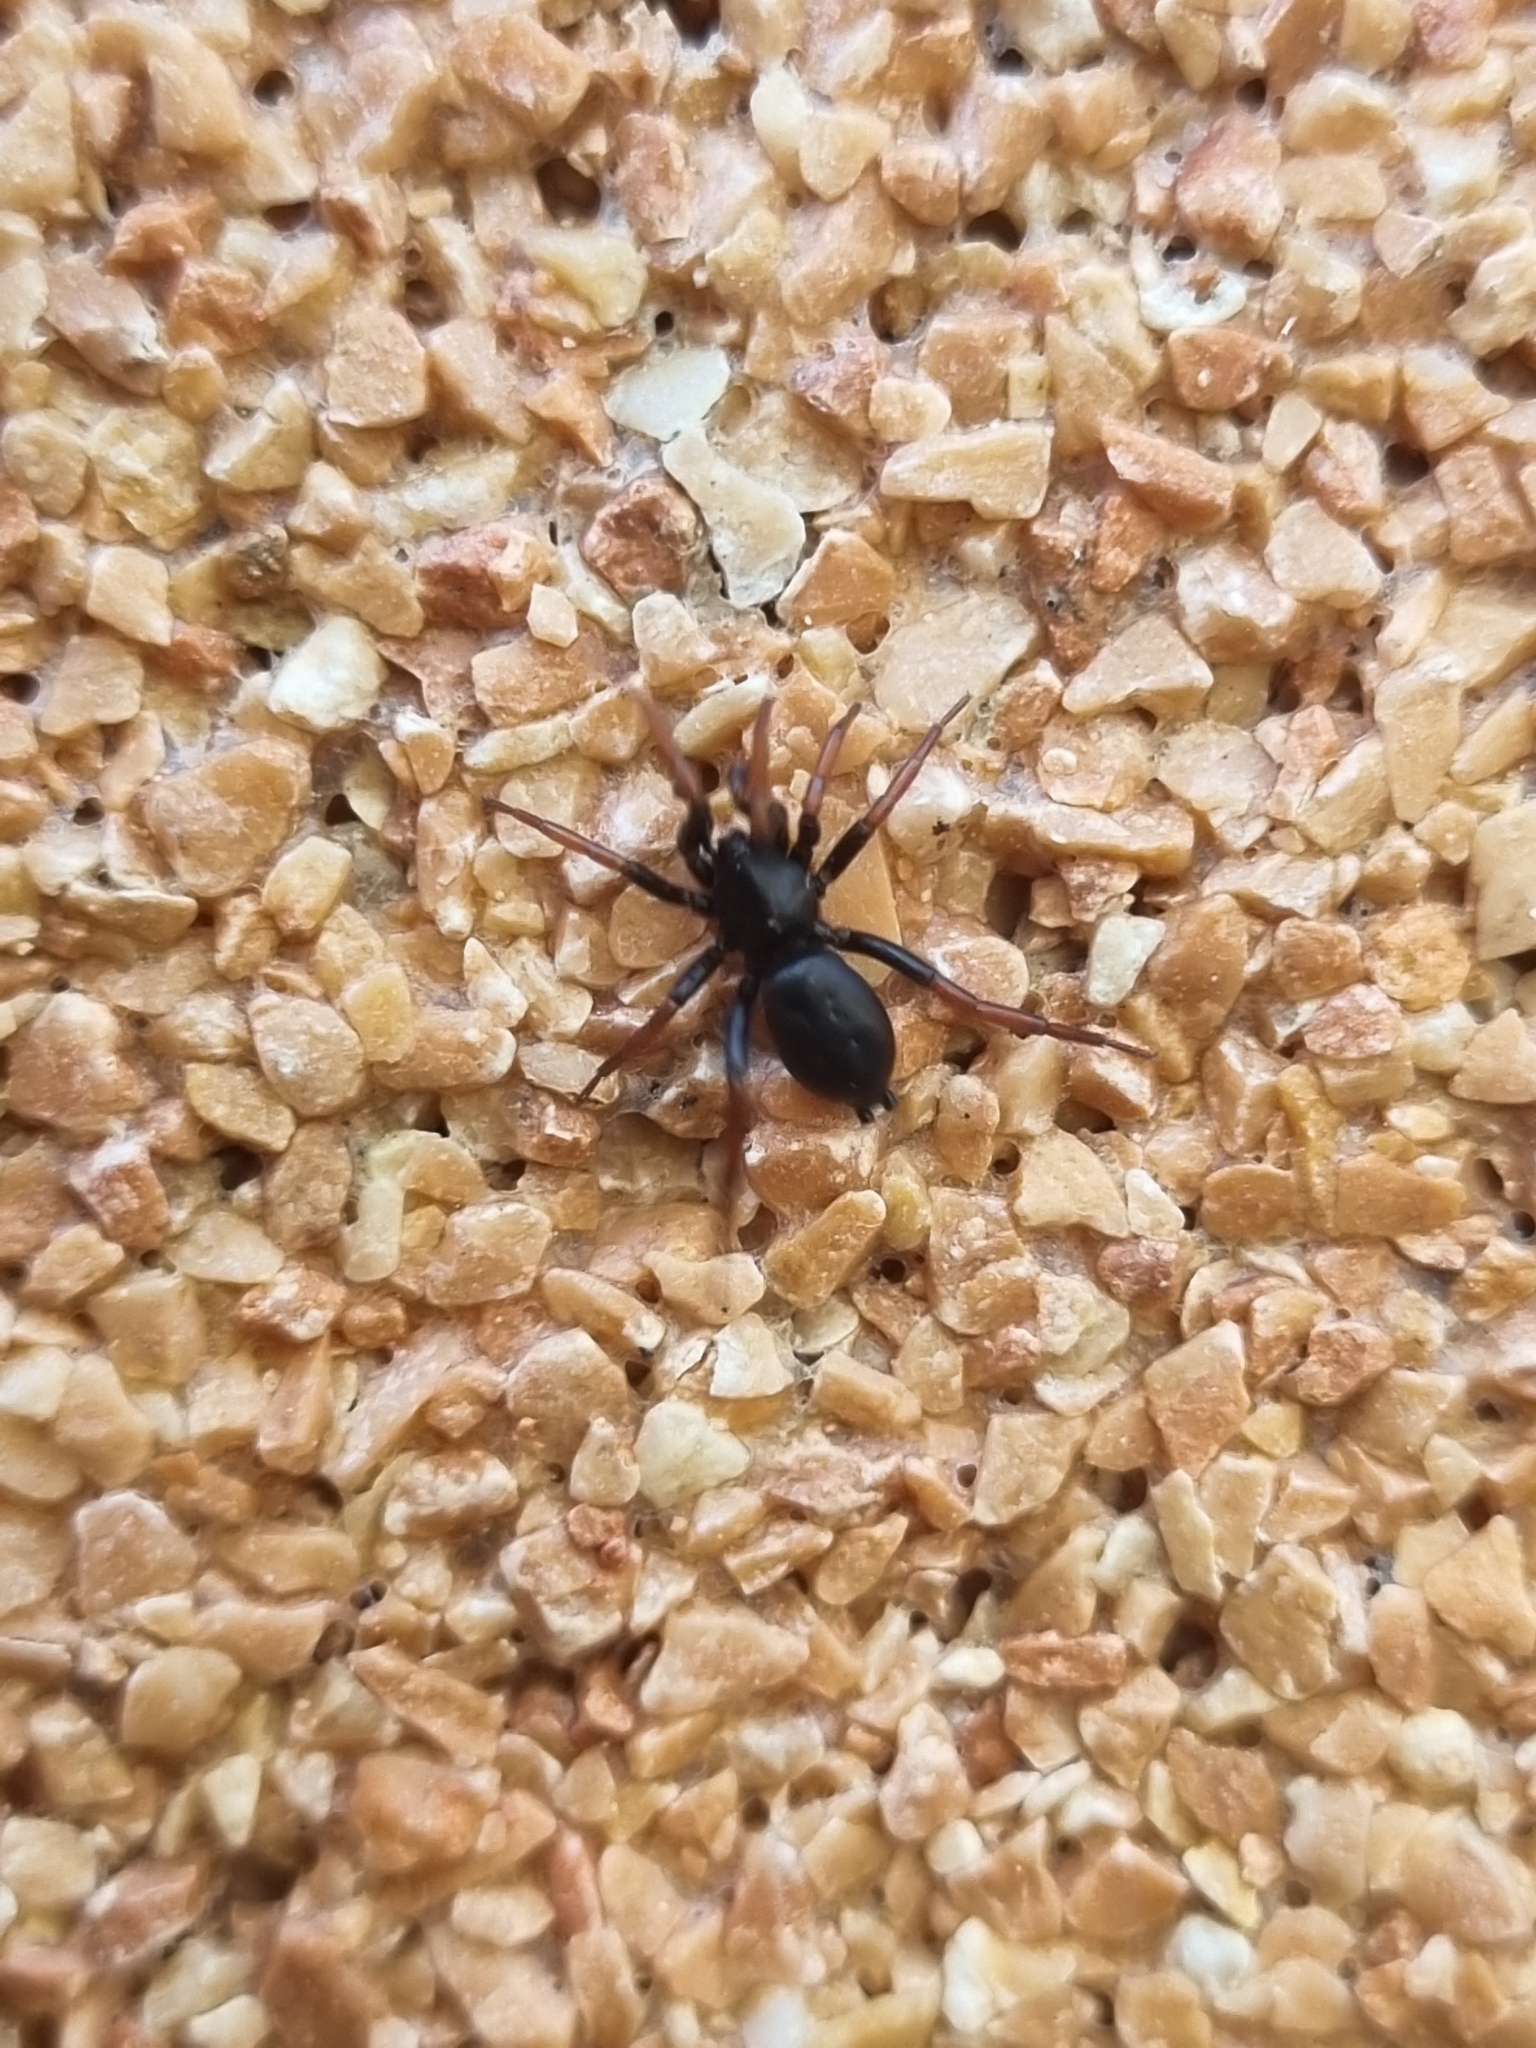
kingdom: Animalia
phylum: Arthropoda
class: Arachnida
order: Araneae
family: Gnaphosidae
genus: Trachyzelotes
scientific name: Trachyzelotes pedestris
